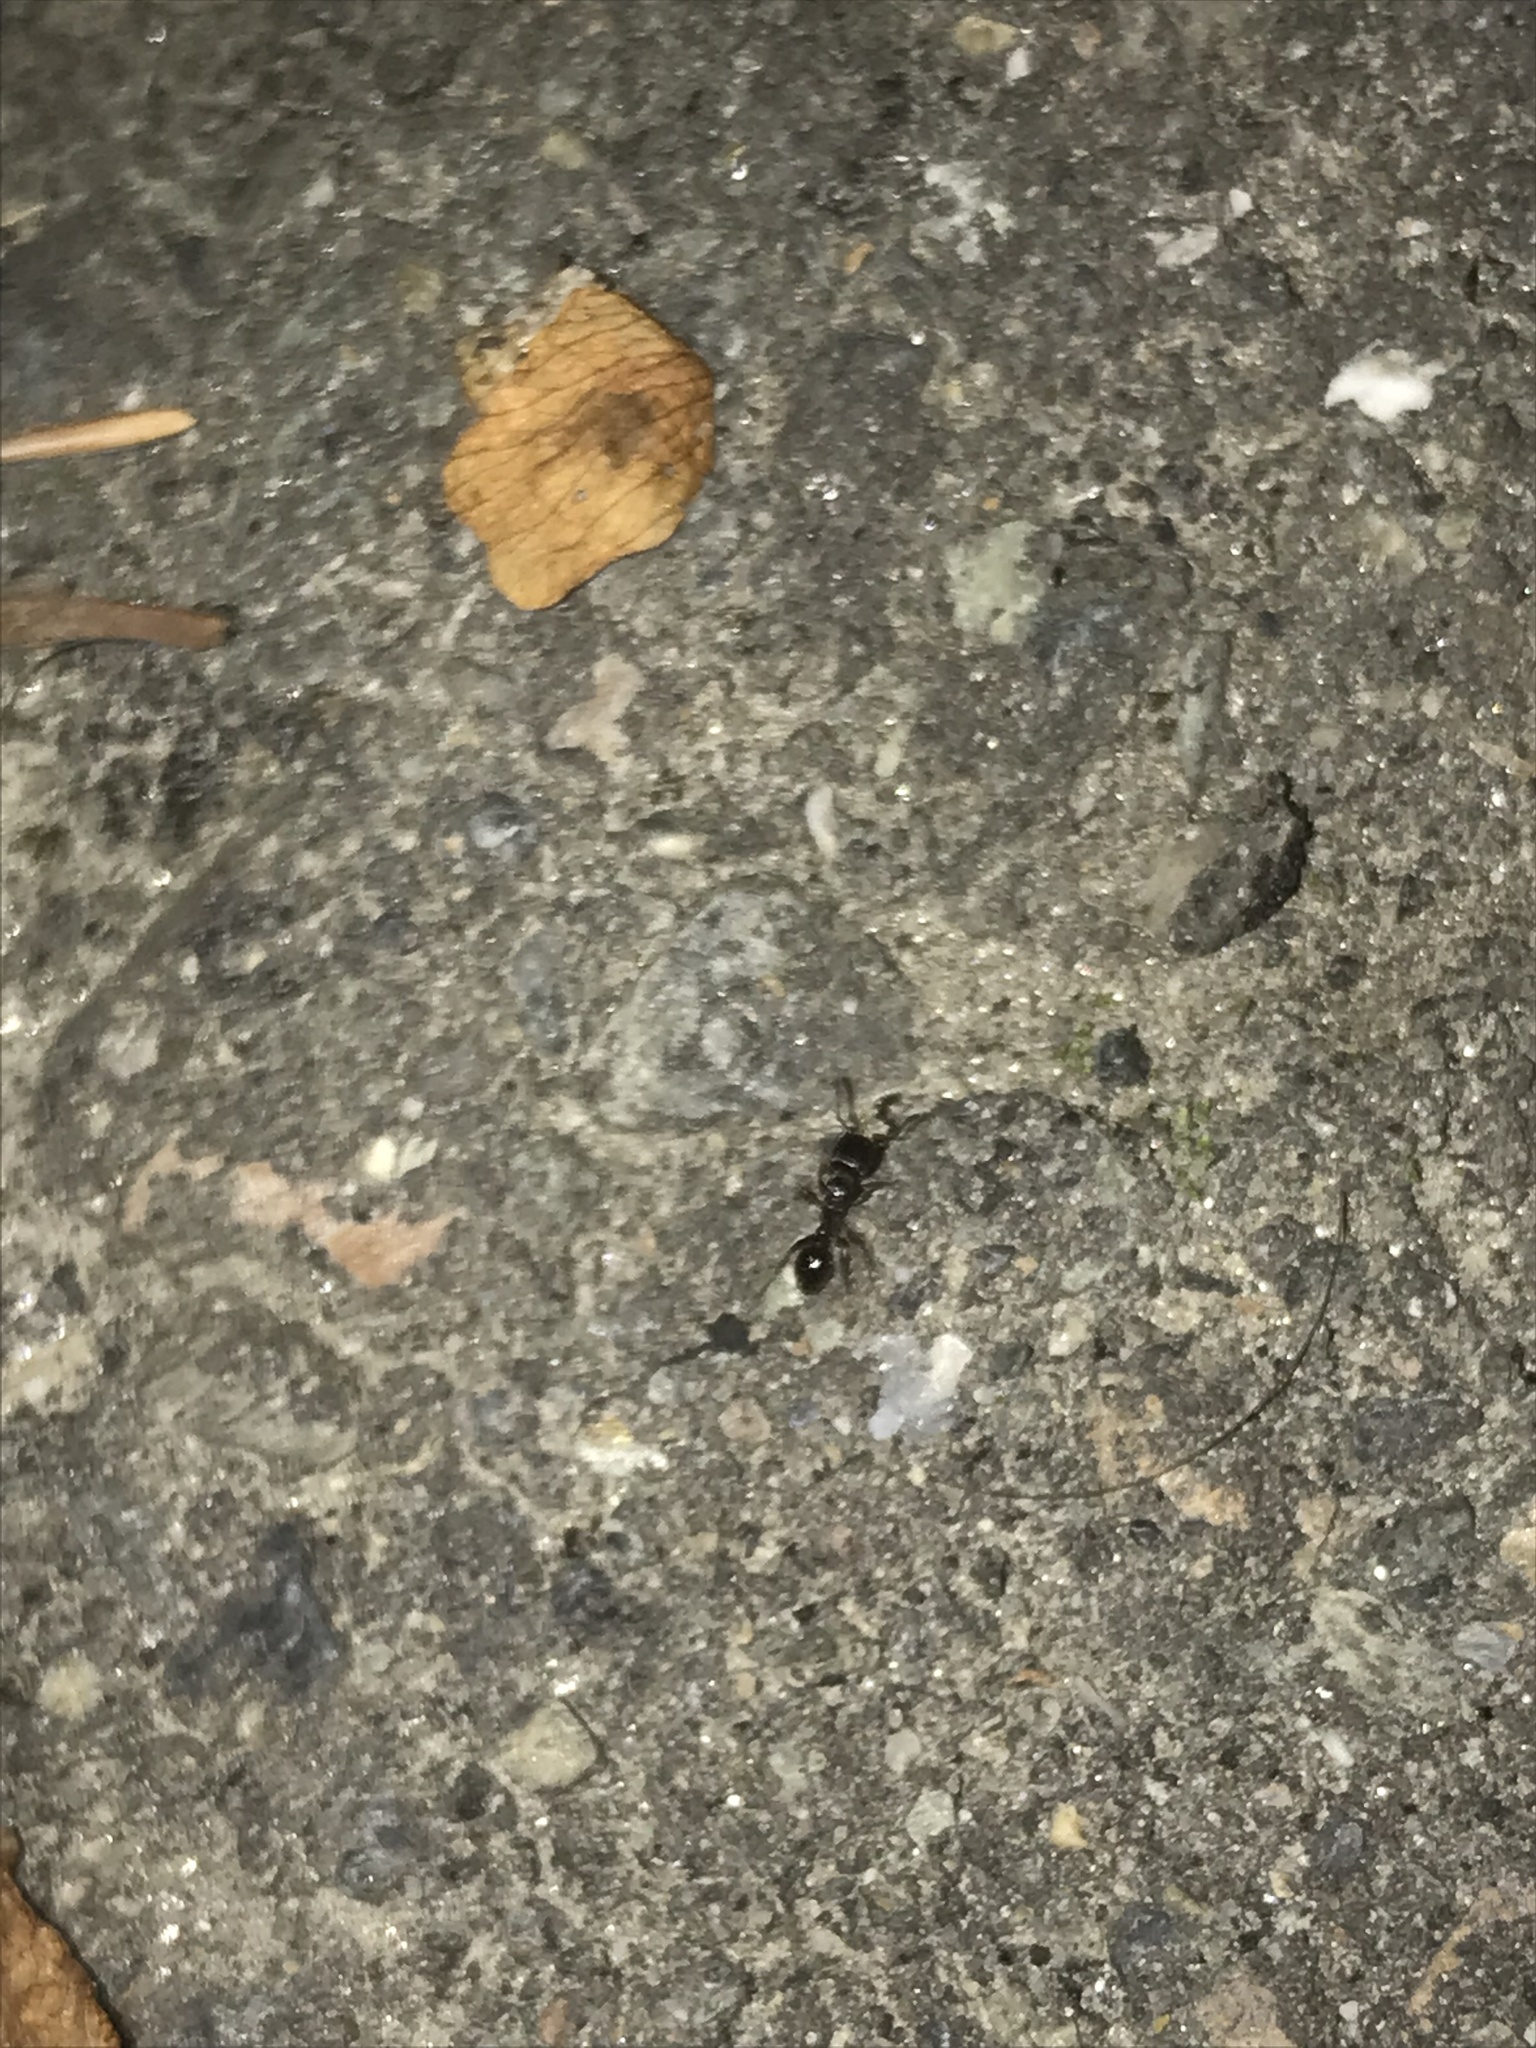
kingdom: Animalia
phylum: Arthropoda
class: Insecta
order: Hymenoptera
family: Formicidae
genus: Tetramorium
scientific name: Tetramorium immigrans
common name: Pavement ant
